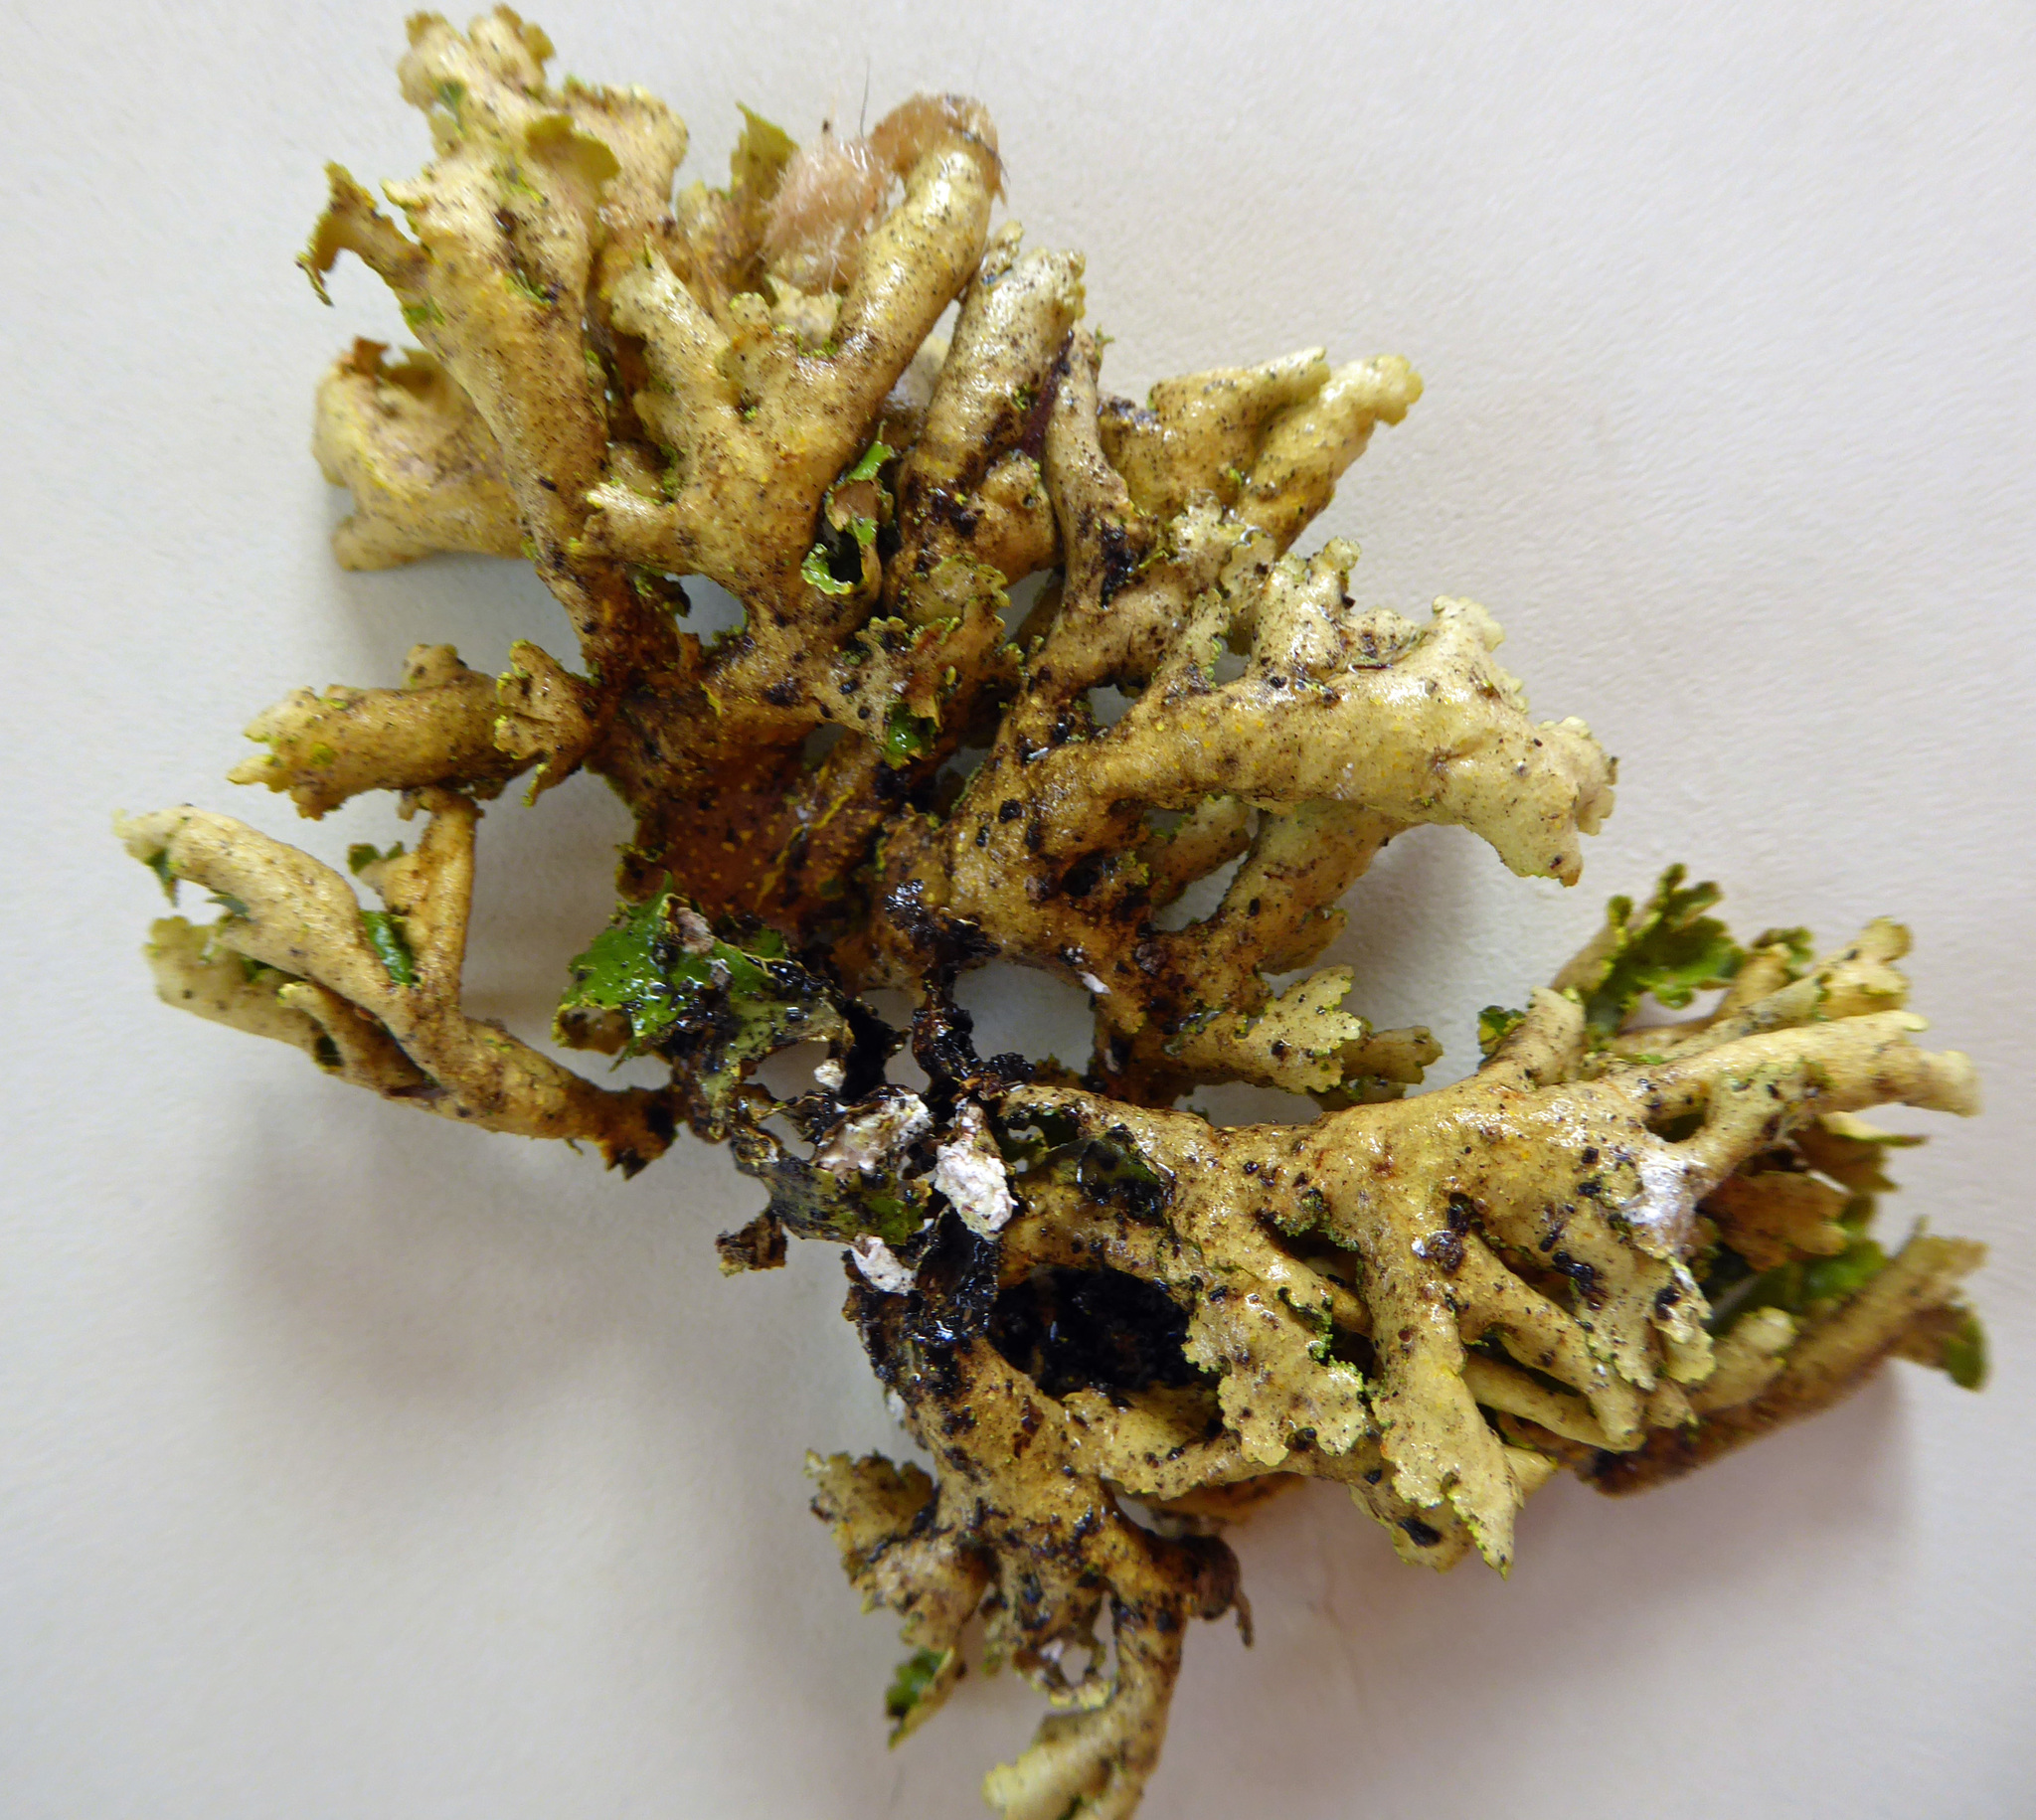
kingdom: Fungi
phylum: Ascomycota
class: Lecanoromycetes
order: Peltigerales
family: Lobariaceae
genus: Crocodia
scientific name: Crocodia poculifera
